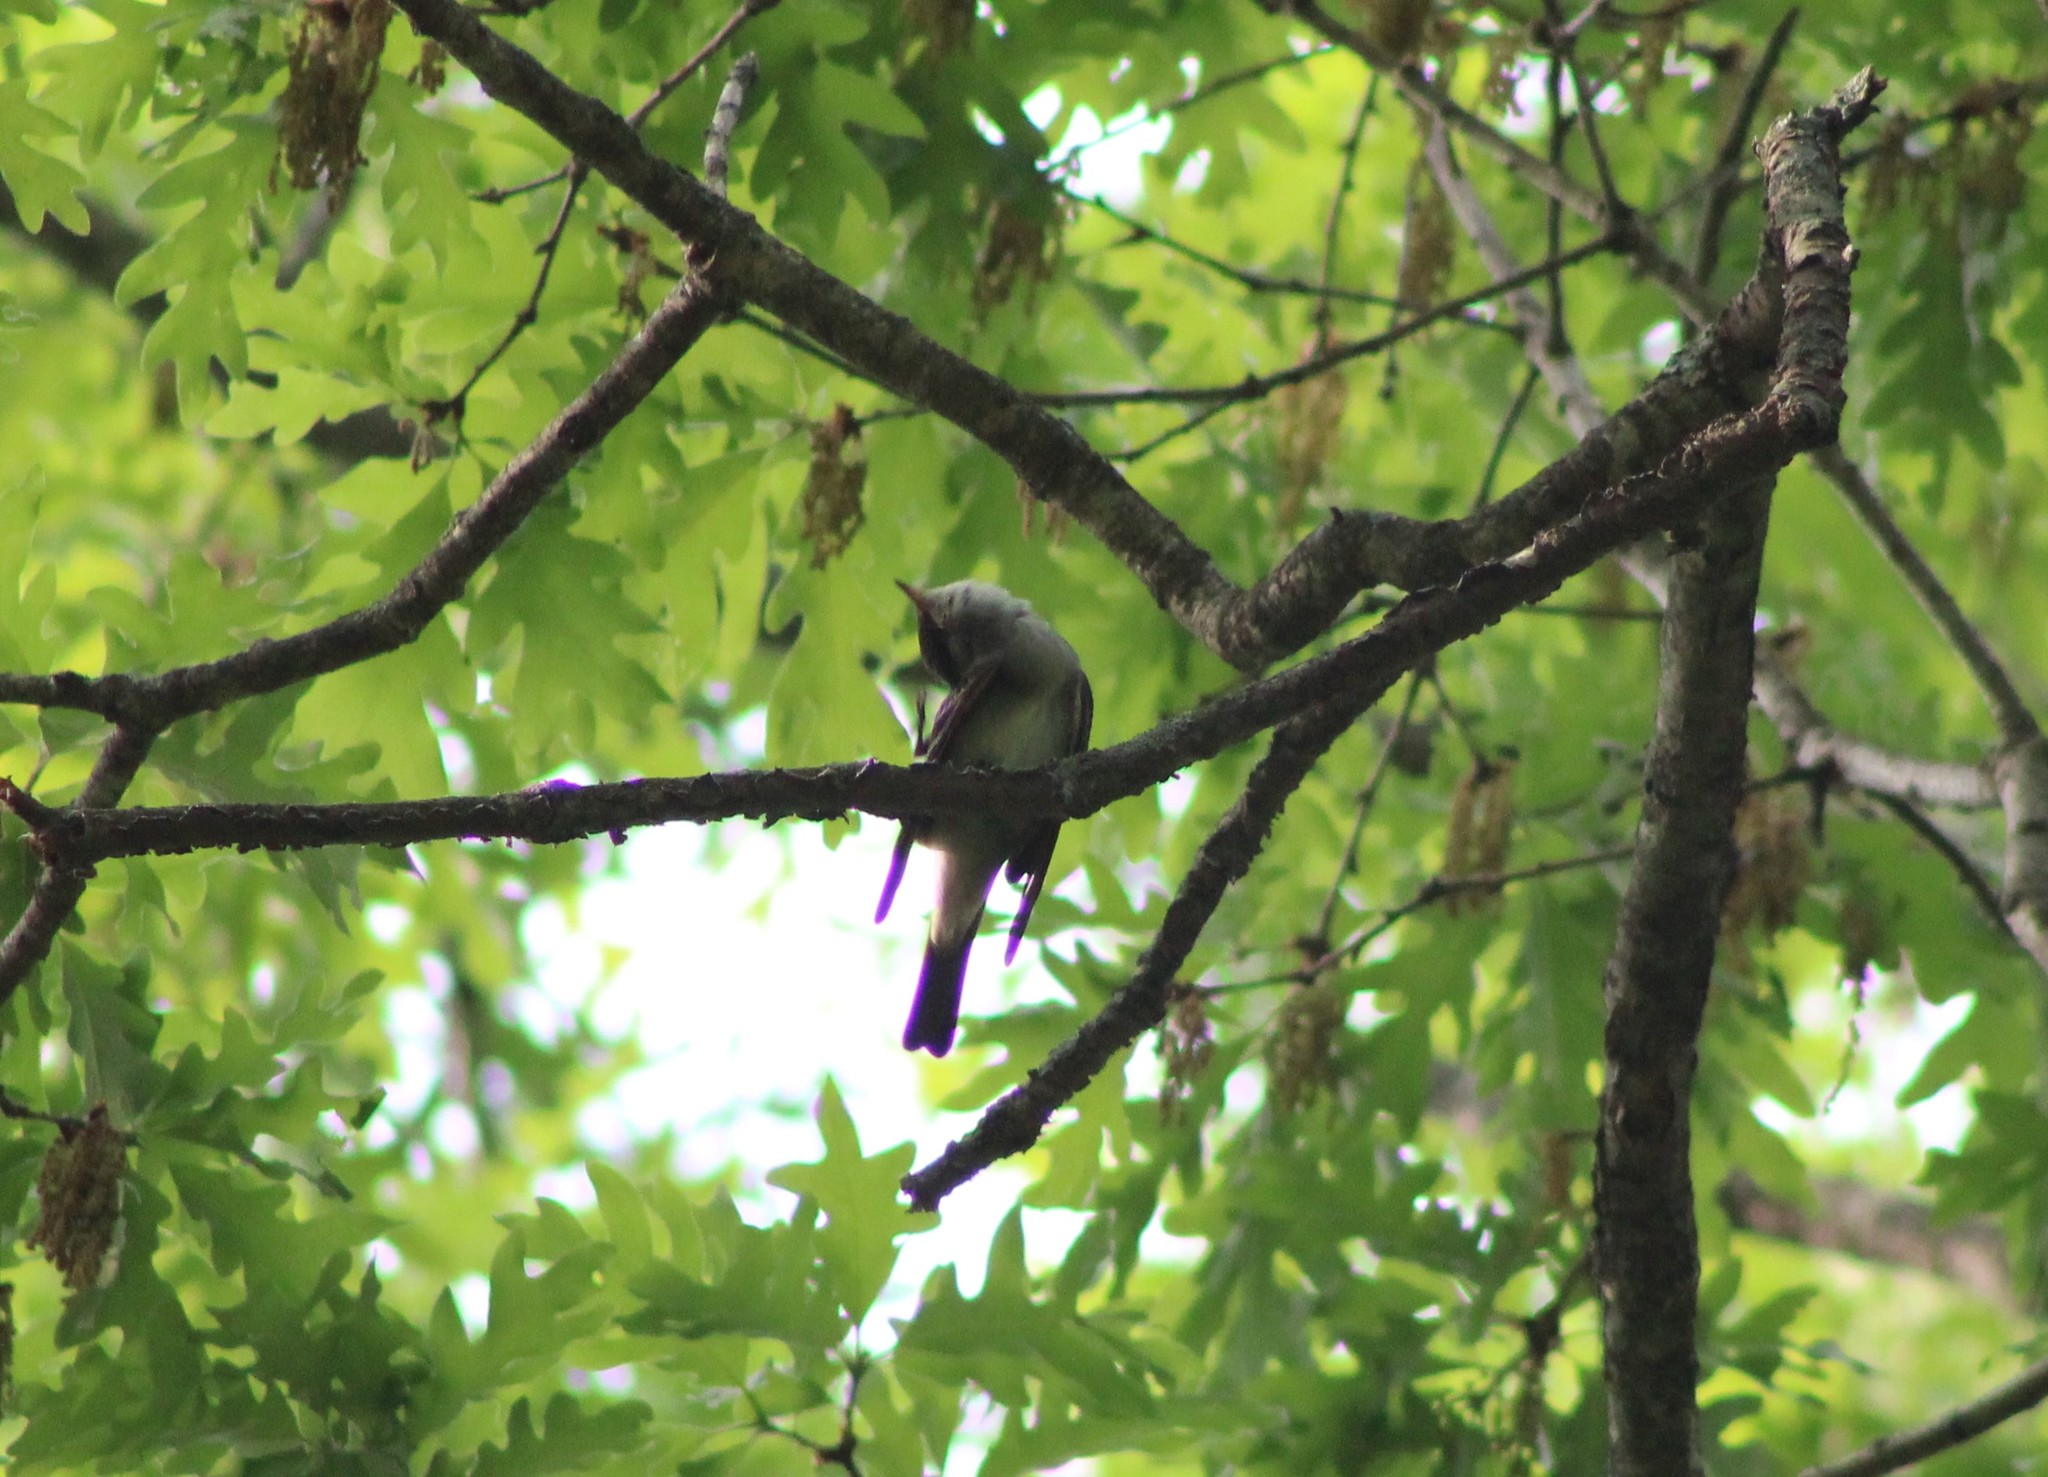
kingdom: Animalia
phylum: Chordata
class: Aves
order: Passeriformes
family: Tyrannidae
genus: Contopus
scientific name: Contopus virens
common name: Eastern wood-pewee
